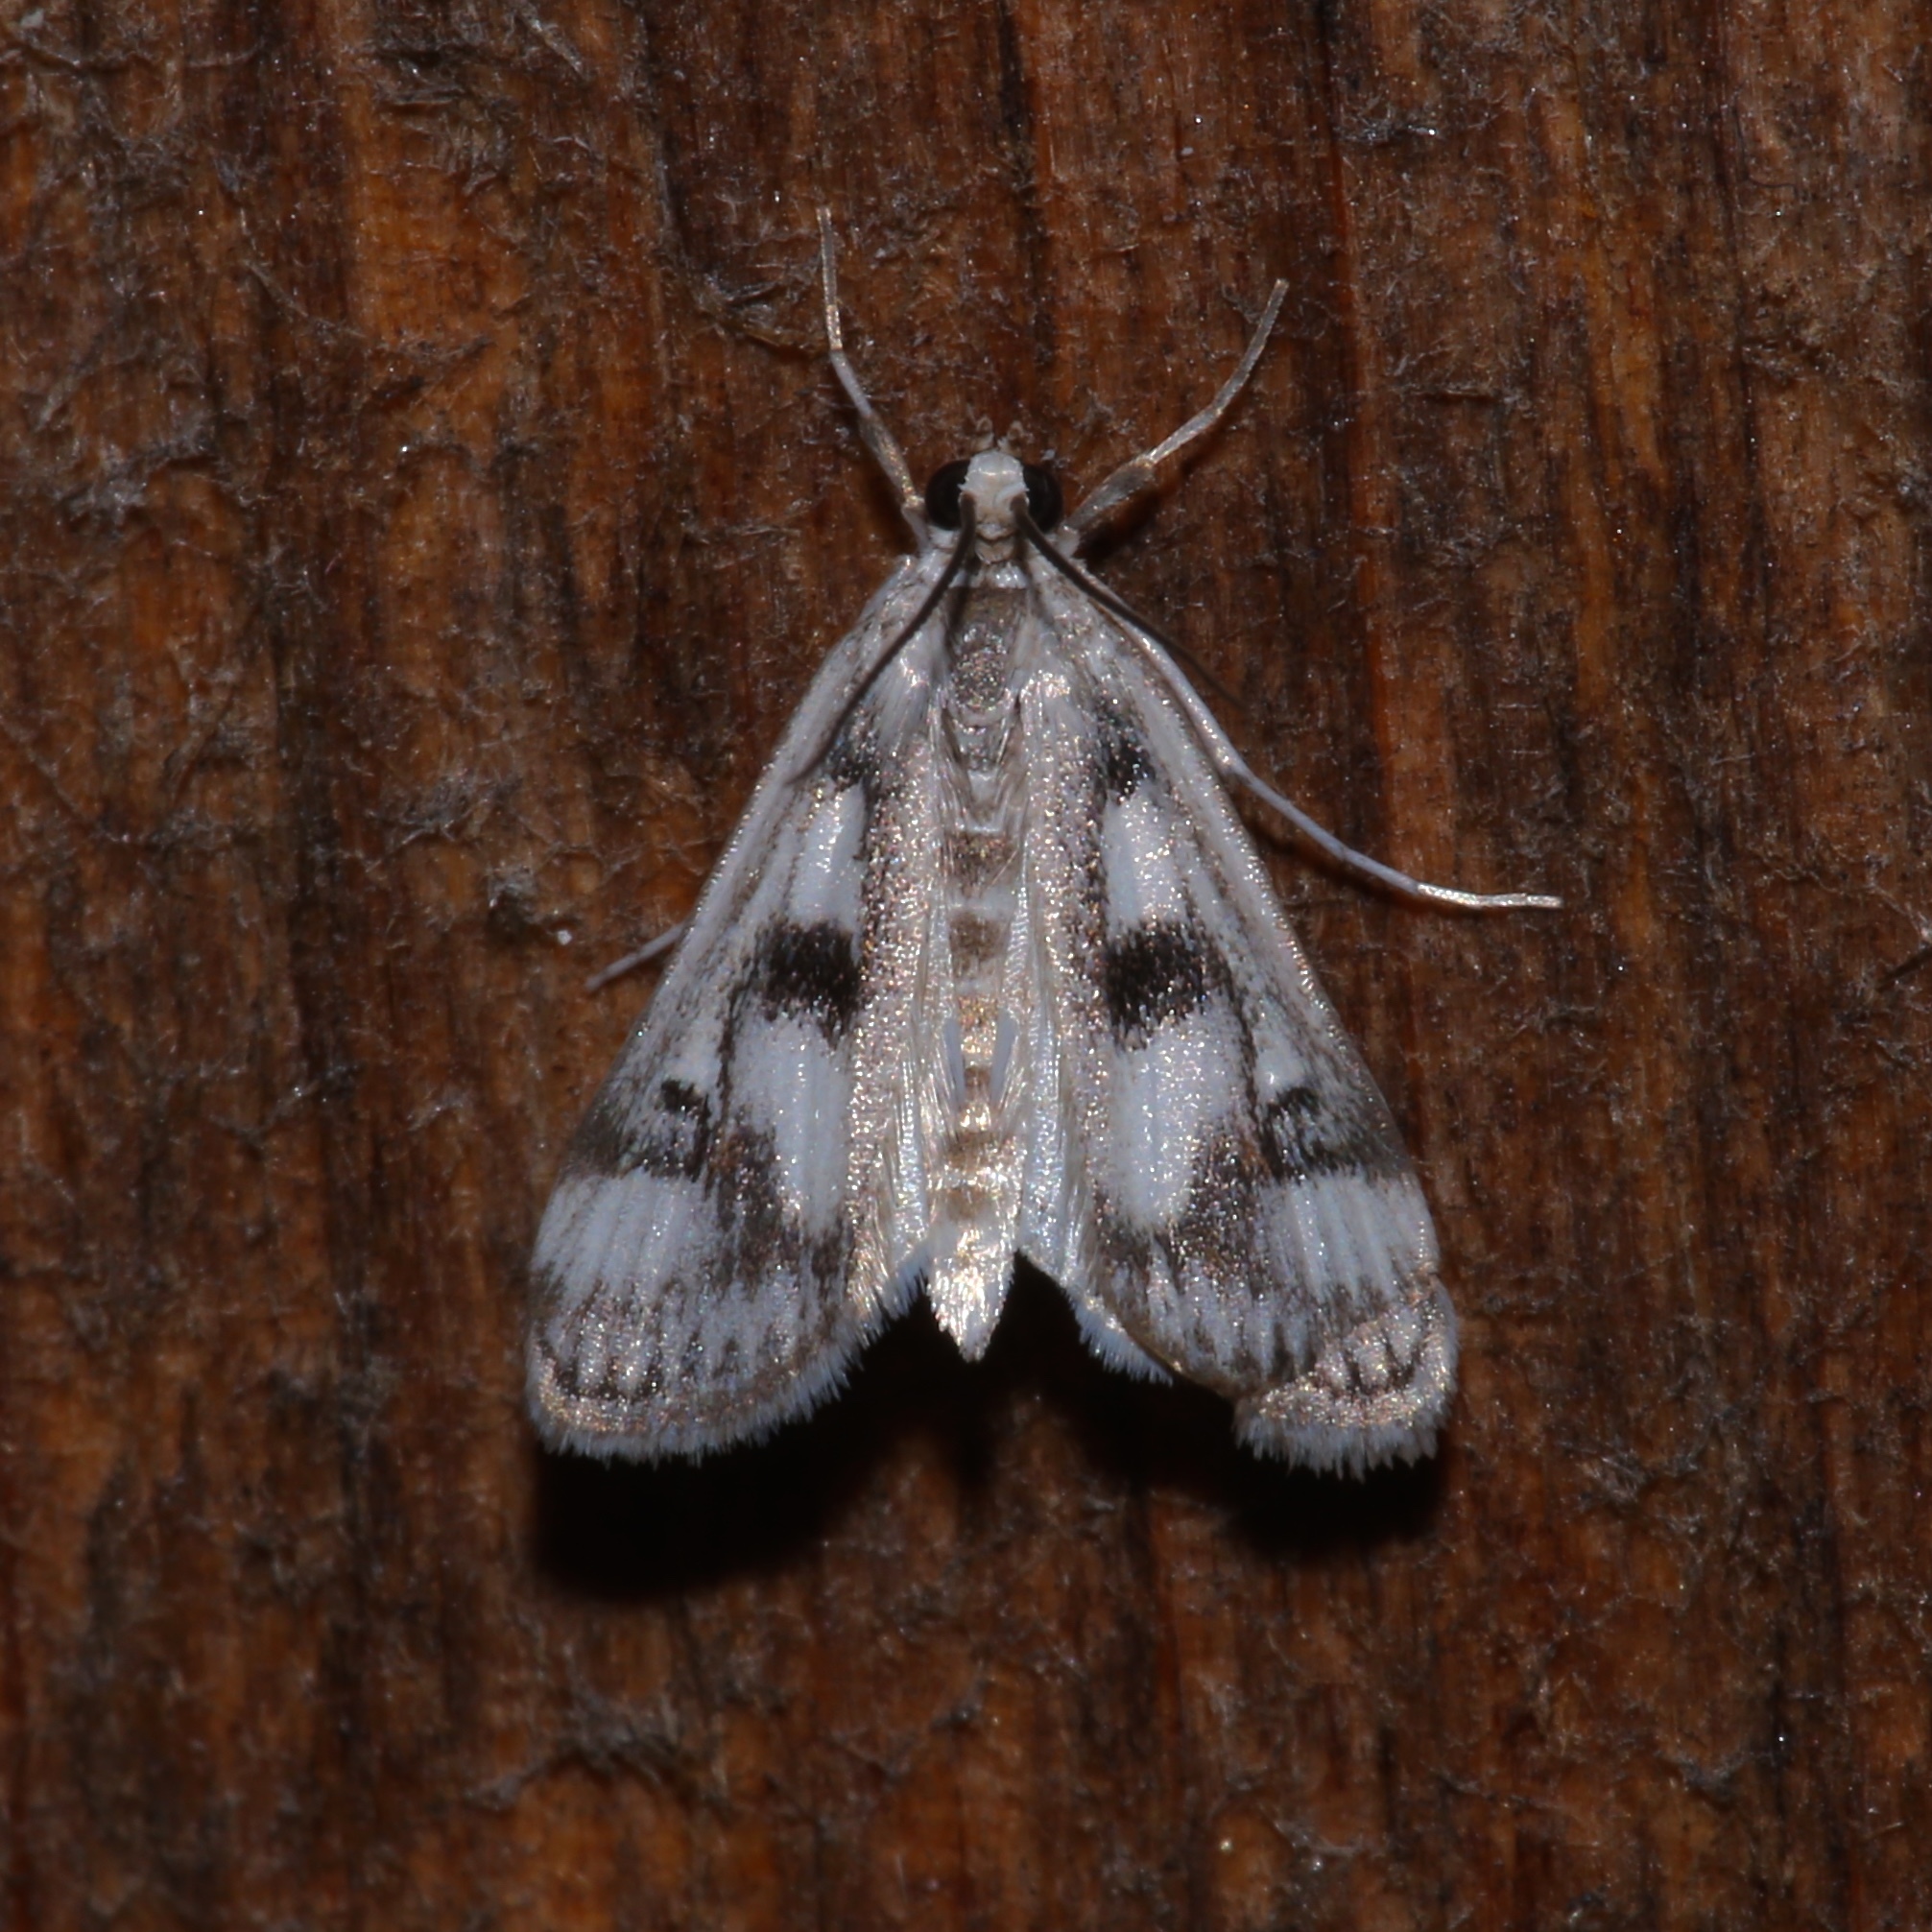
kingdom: Animalia
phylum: Arthropoda
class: Insecta
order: Lepidoptera
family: Crambidae
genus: Parapoynx
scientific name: Parapoynx maculalis
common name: Polymorphic pondweed moth
